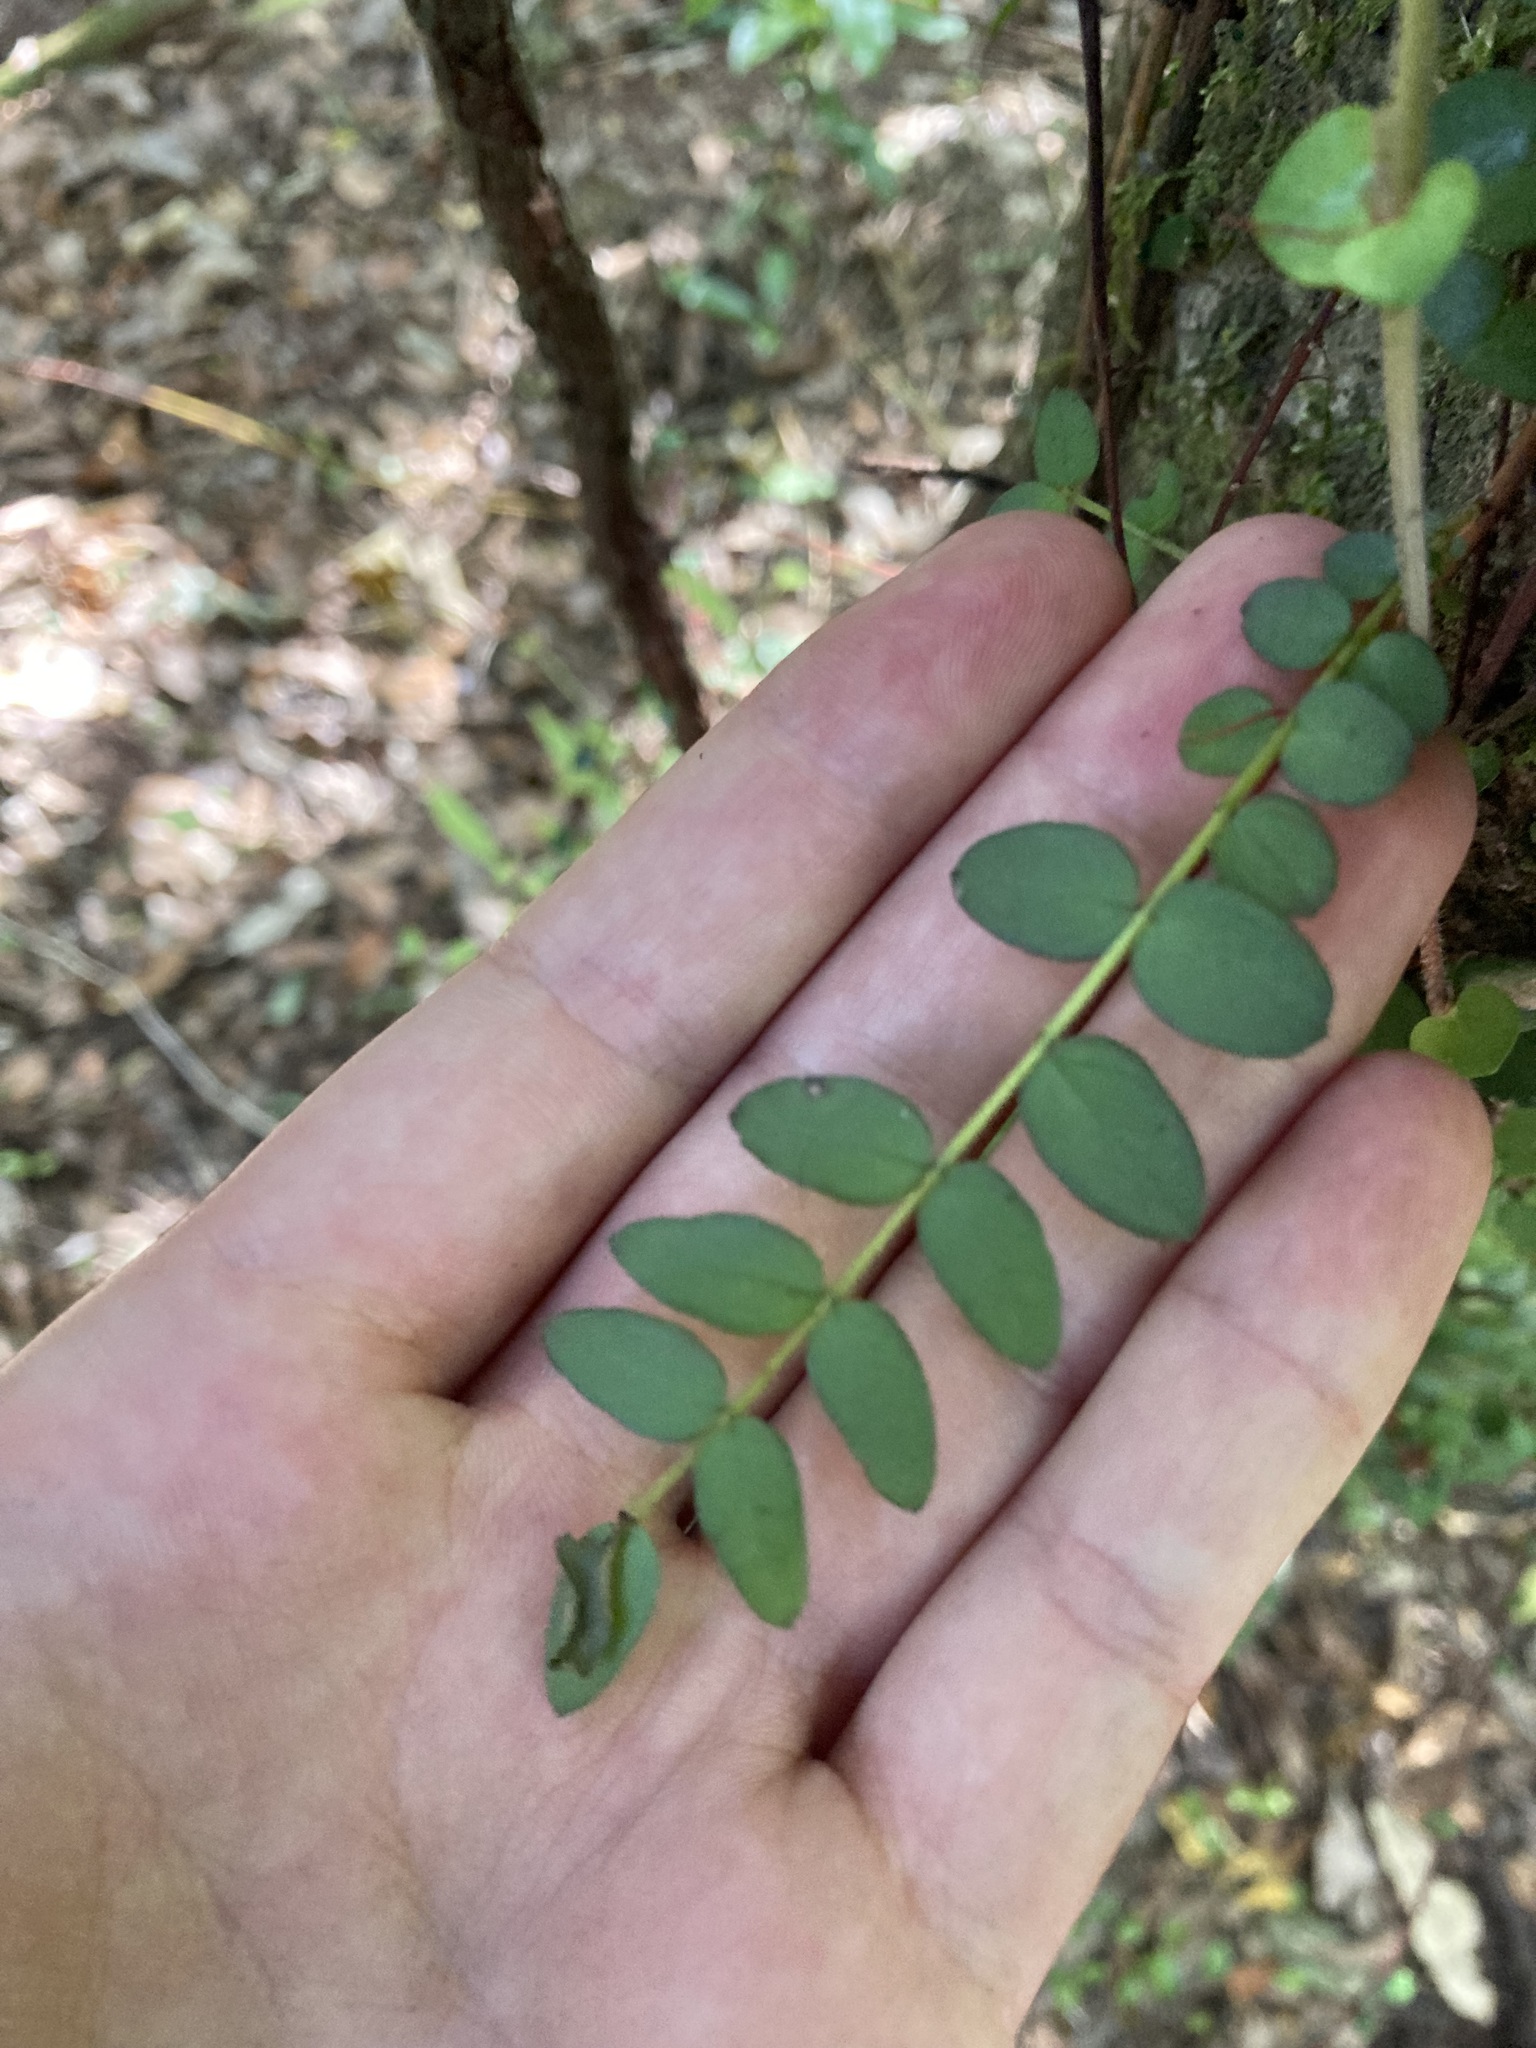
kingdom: Plantae
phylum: Tracheophyta
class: Magnoliopsida
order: Myrtales
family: Myrtaceae
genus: Metrosideros
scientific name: Metrosideros diffusa
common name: Small ratavine
